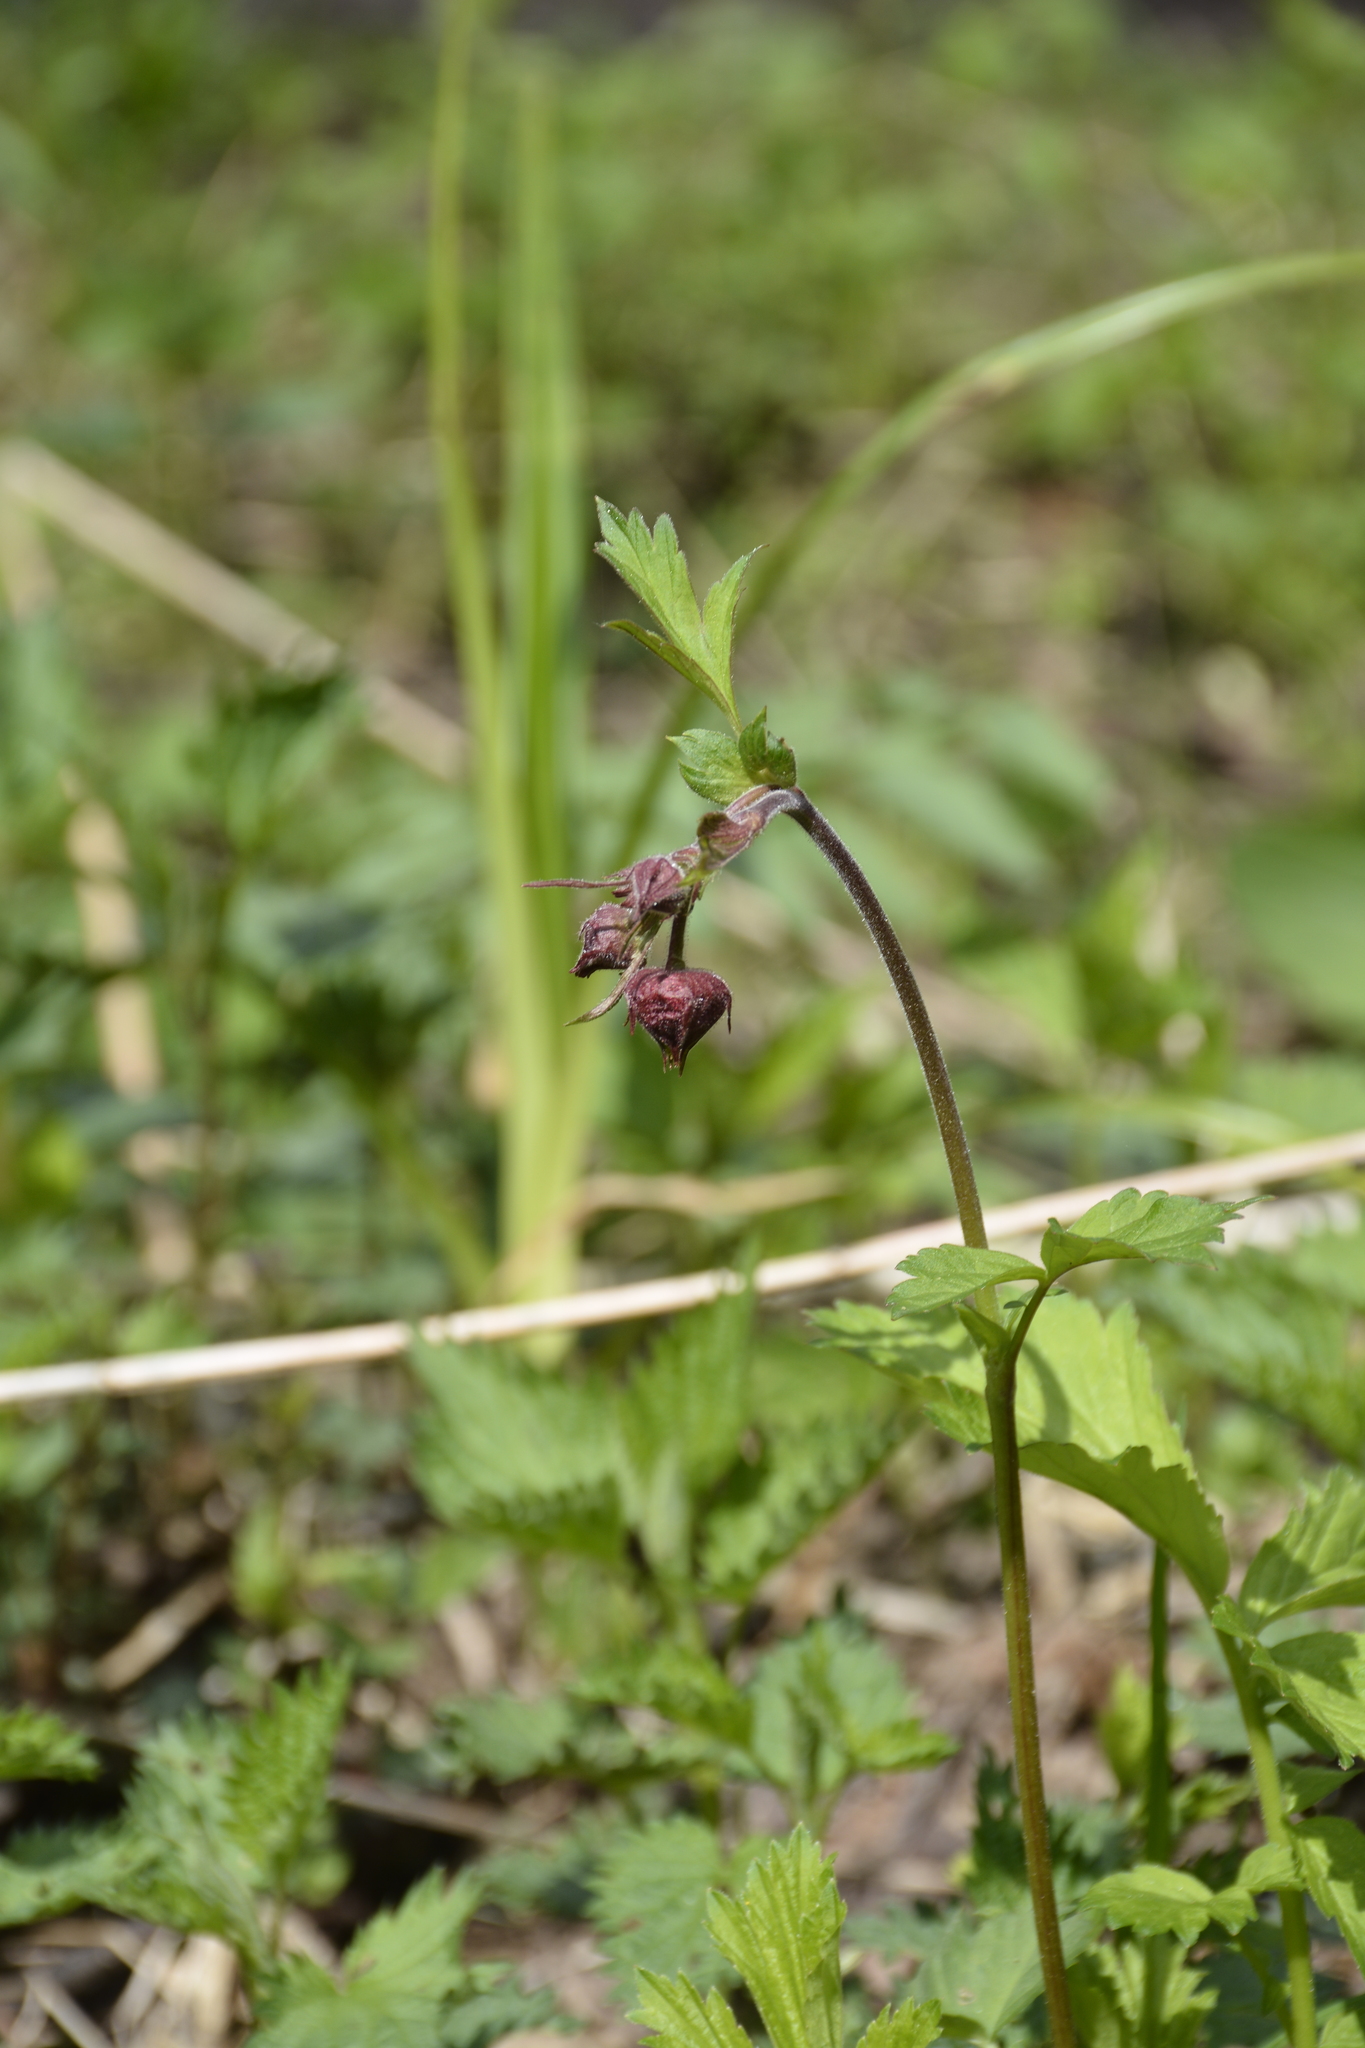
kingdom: Plantae
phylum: Tracheophyta
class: Magnoliopsida
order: Rosales
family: Rosaceae
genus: Geum
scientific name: Geum rivale
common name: Water avens
